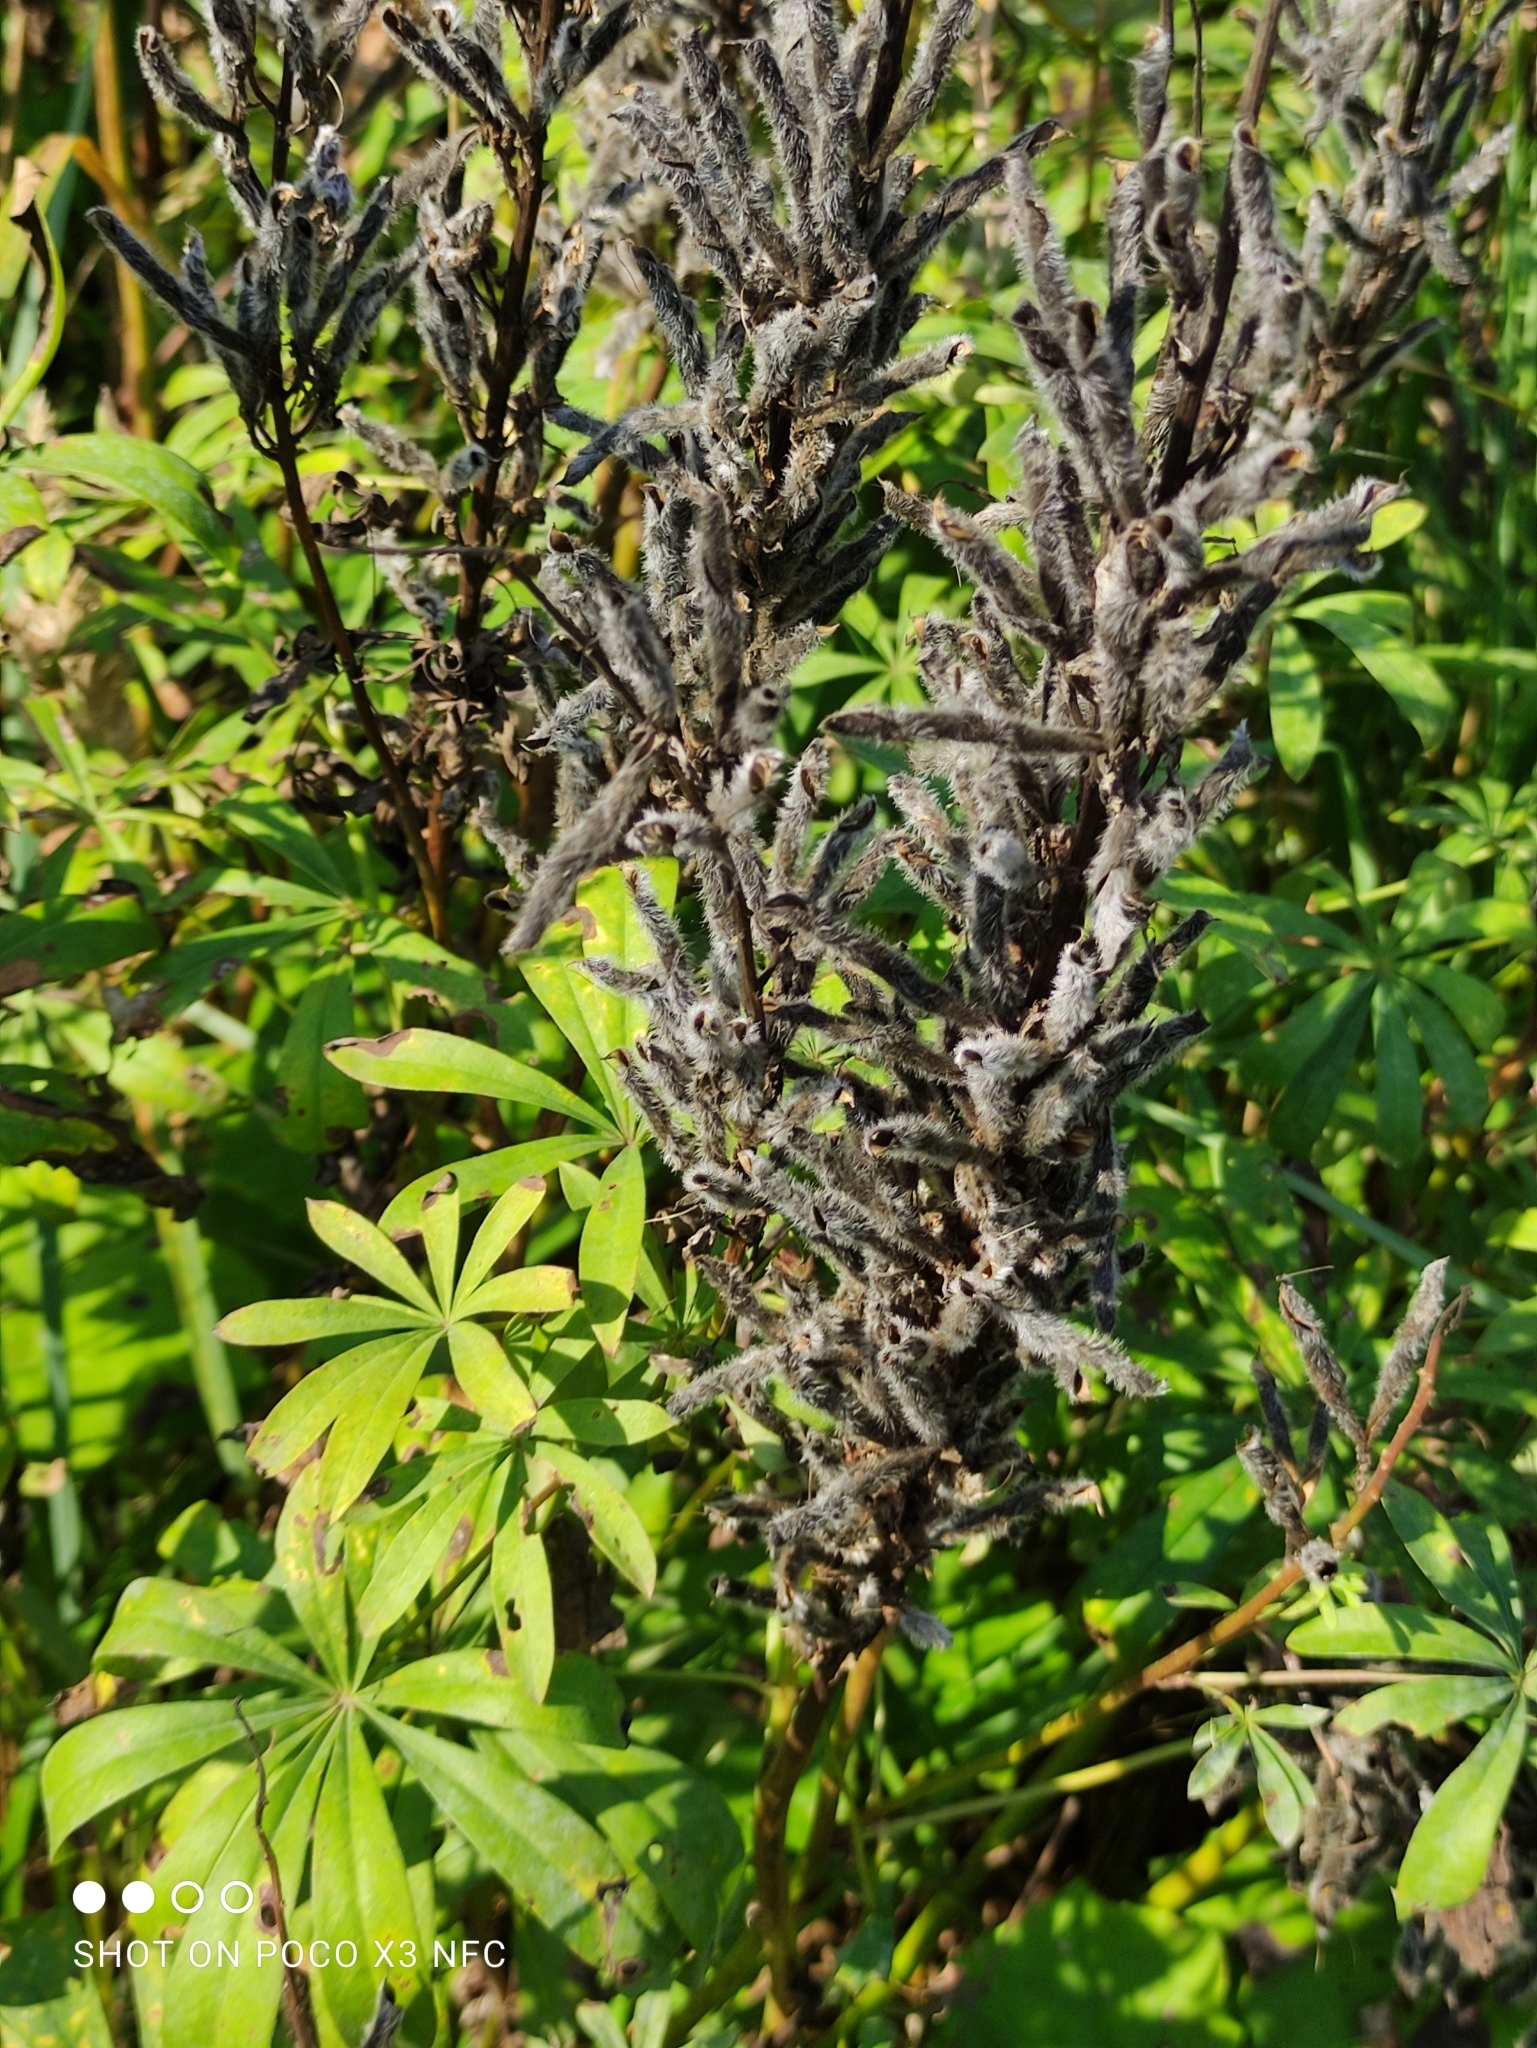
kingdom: Plantae
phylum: Tracheophyta
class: Magnoliopsida
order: Fabales
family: Fabaceae
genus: Lupinus
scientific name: Lupinus polyphyllus
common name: Garden lupin
